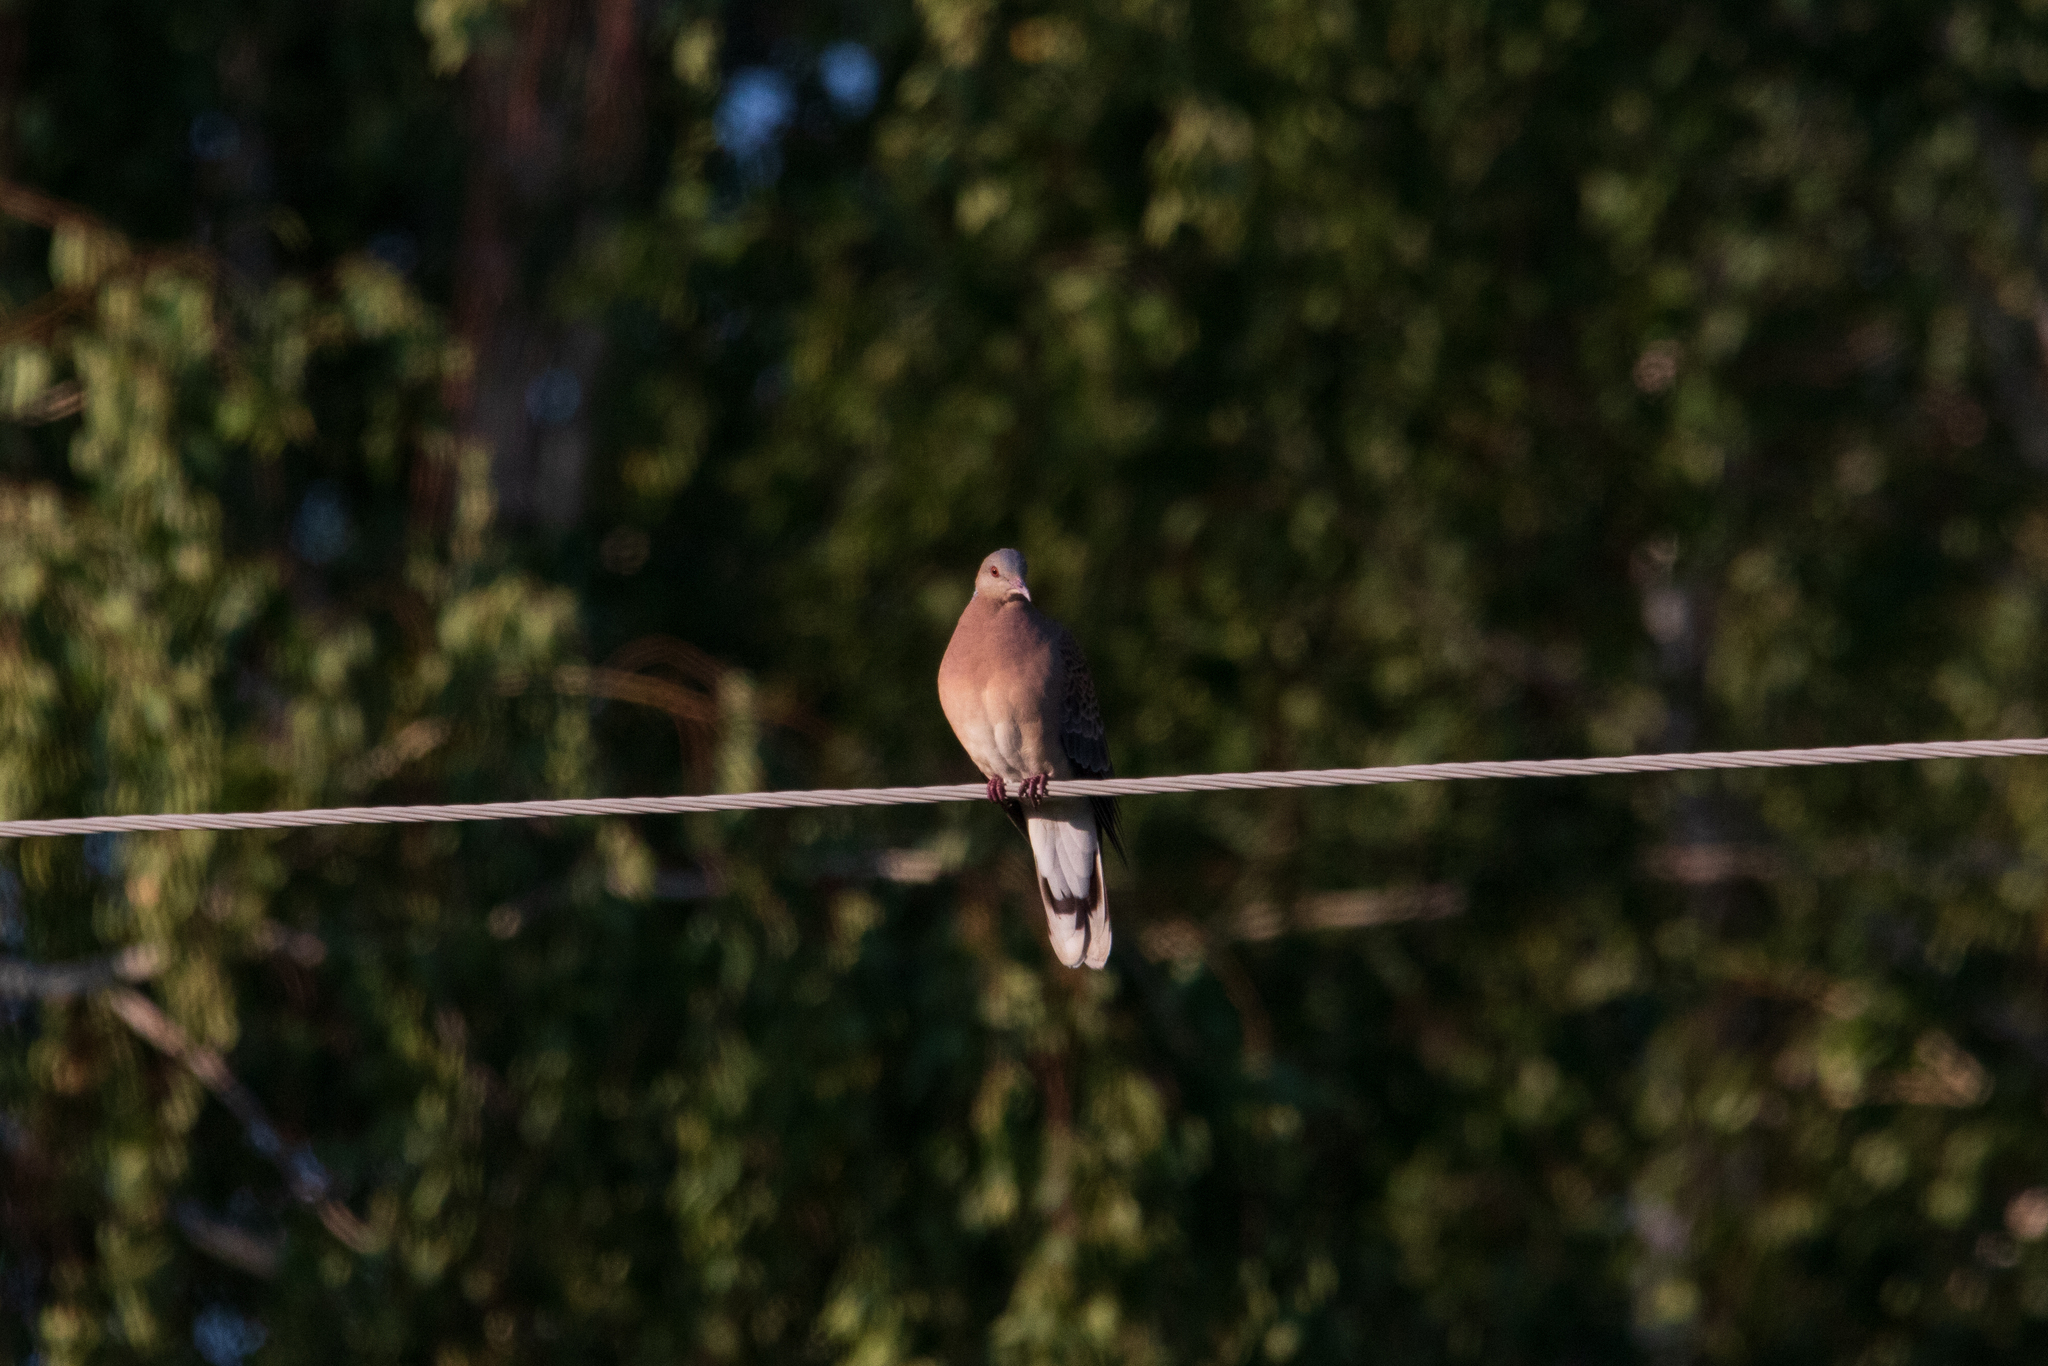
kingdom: Animalia
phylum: Chordata
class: Aves
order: Columbiformes
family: Columbidae
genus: Streptopelia
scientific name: Streptopelia orientalis
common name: Oriental turtle dove
